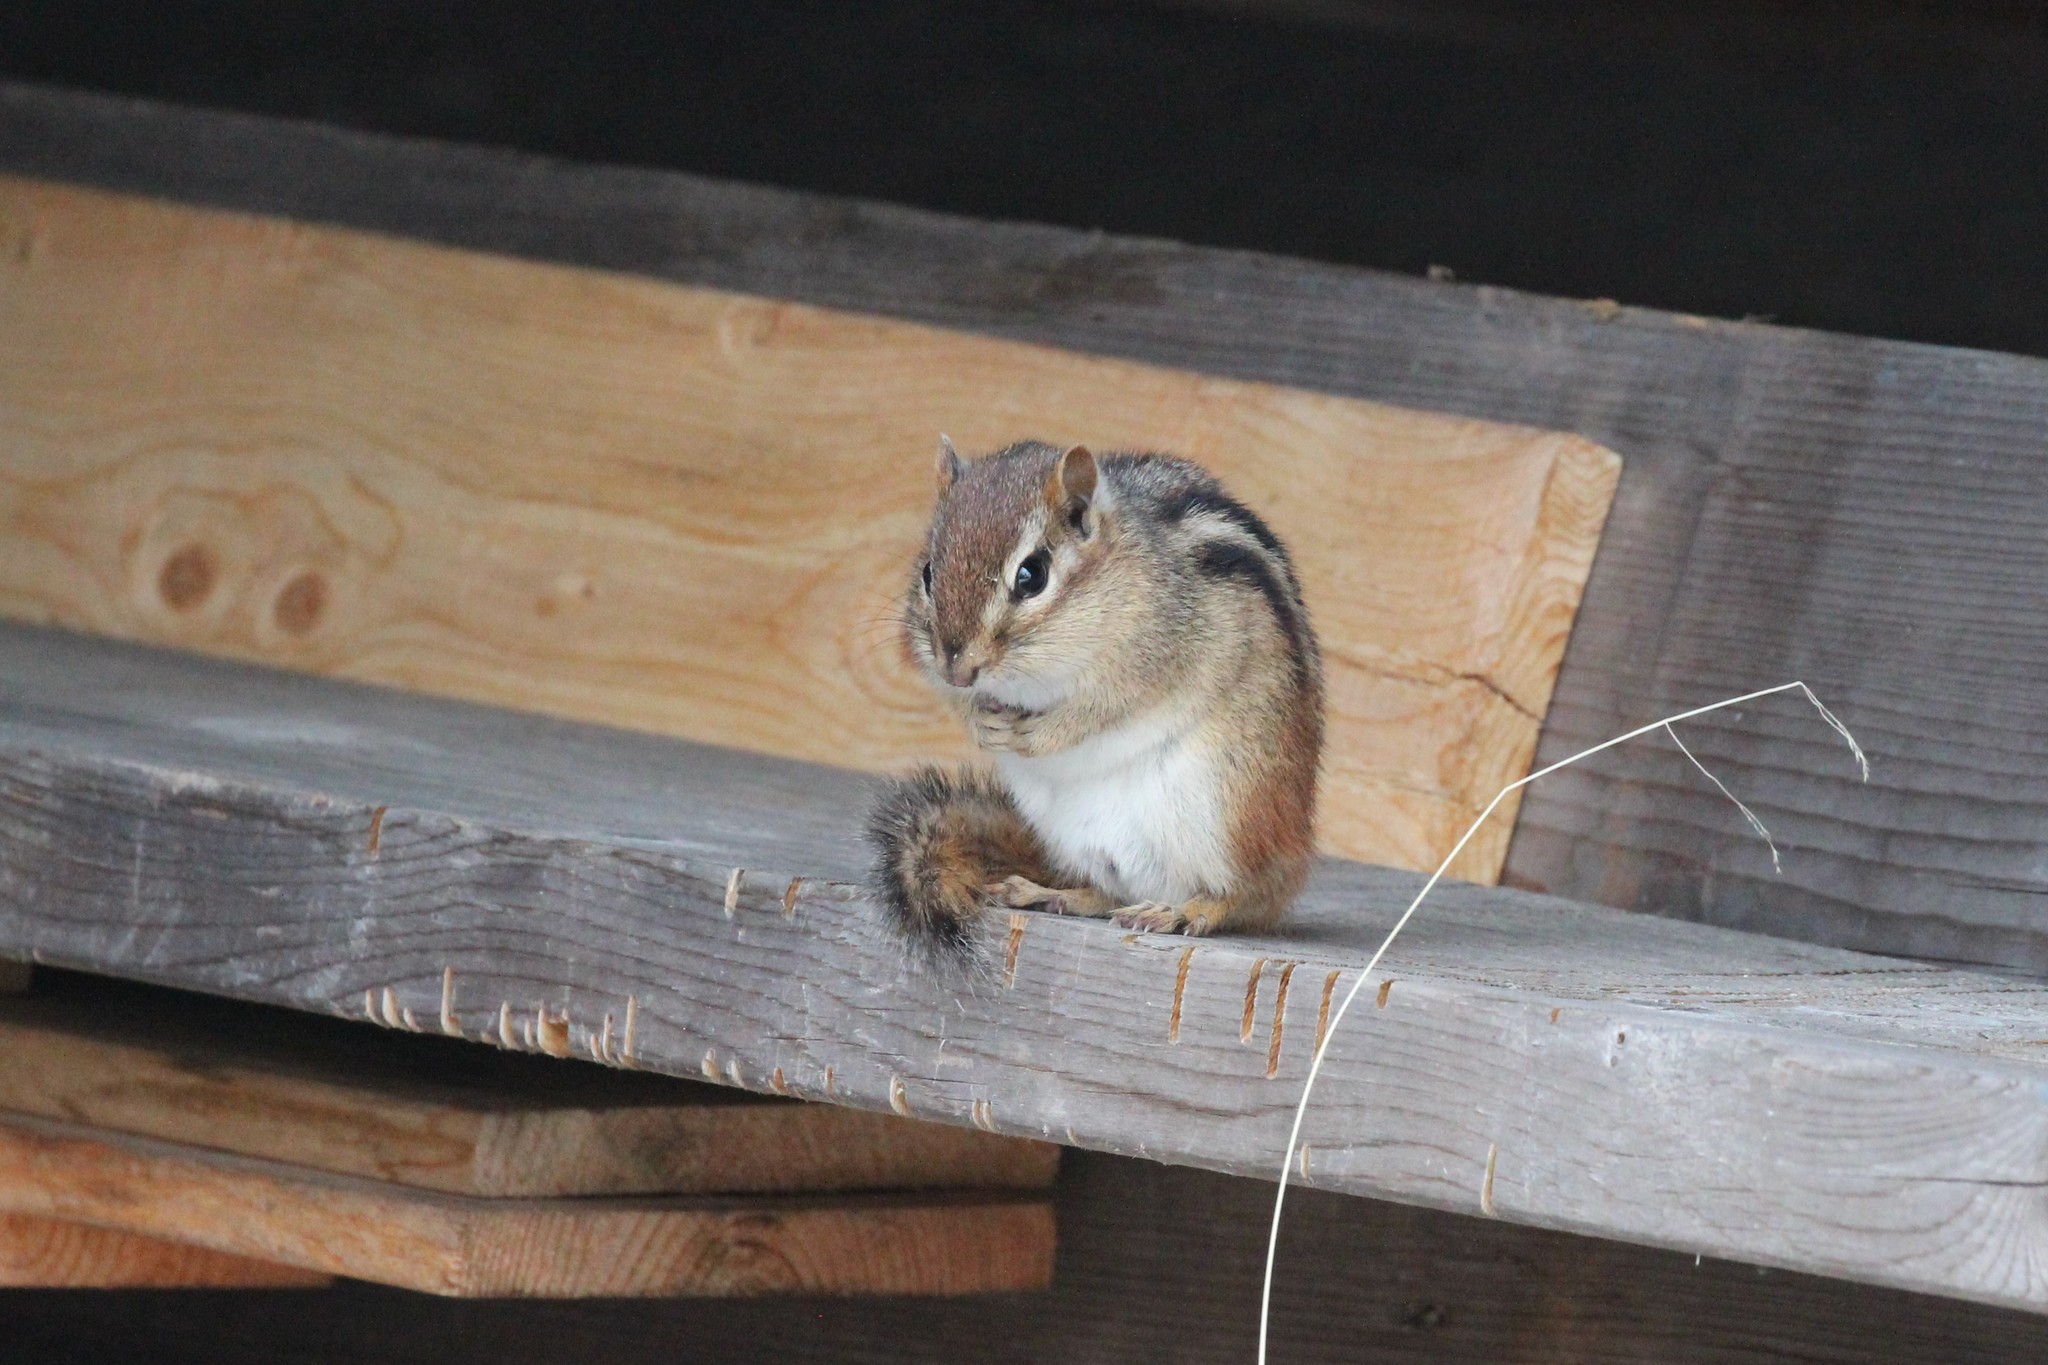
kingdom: Animalia
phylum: Chordata
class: Mammalia
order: Rodentia
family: Sciuridae
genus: Tamias
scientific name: Tamias striatus
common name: Eastern chipmunk
